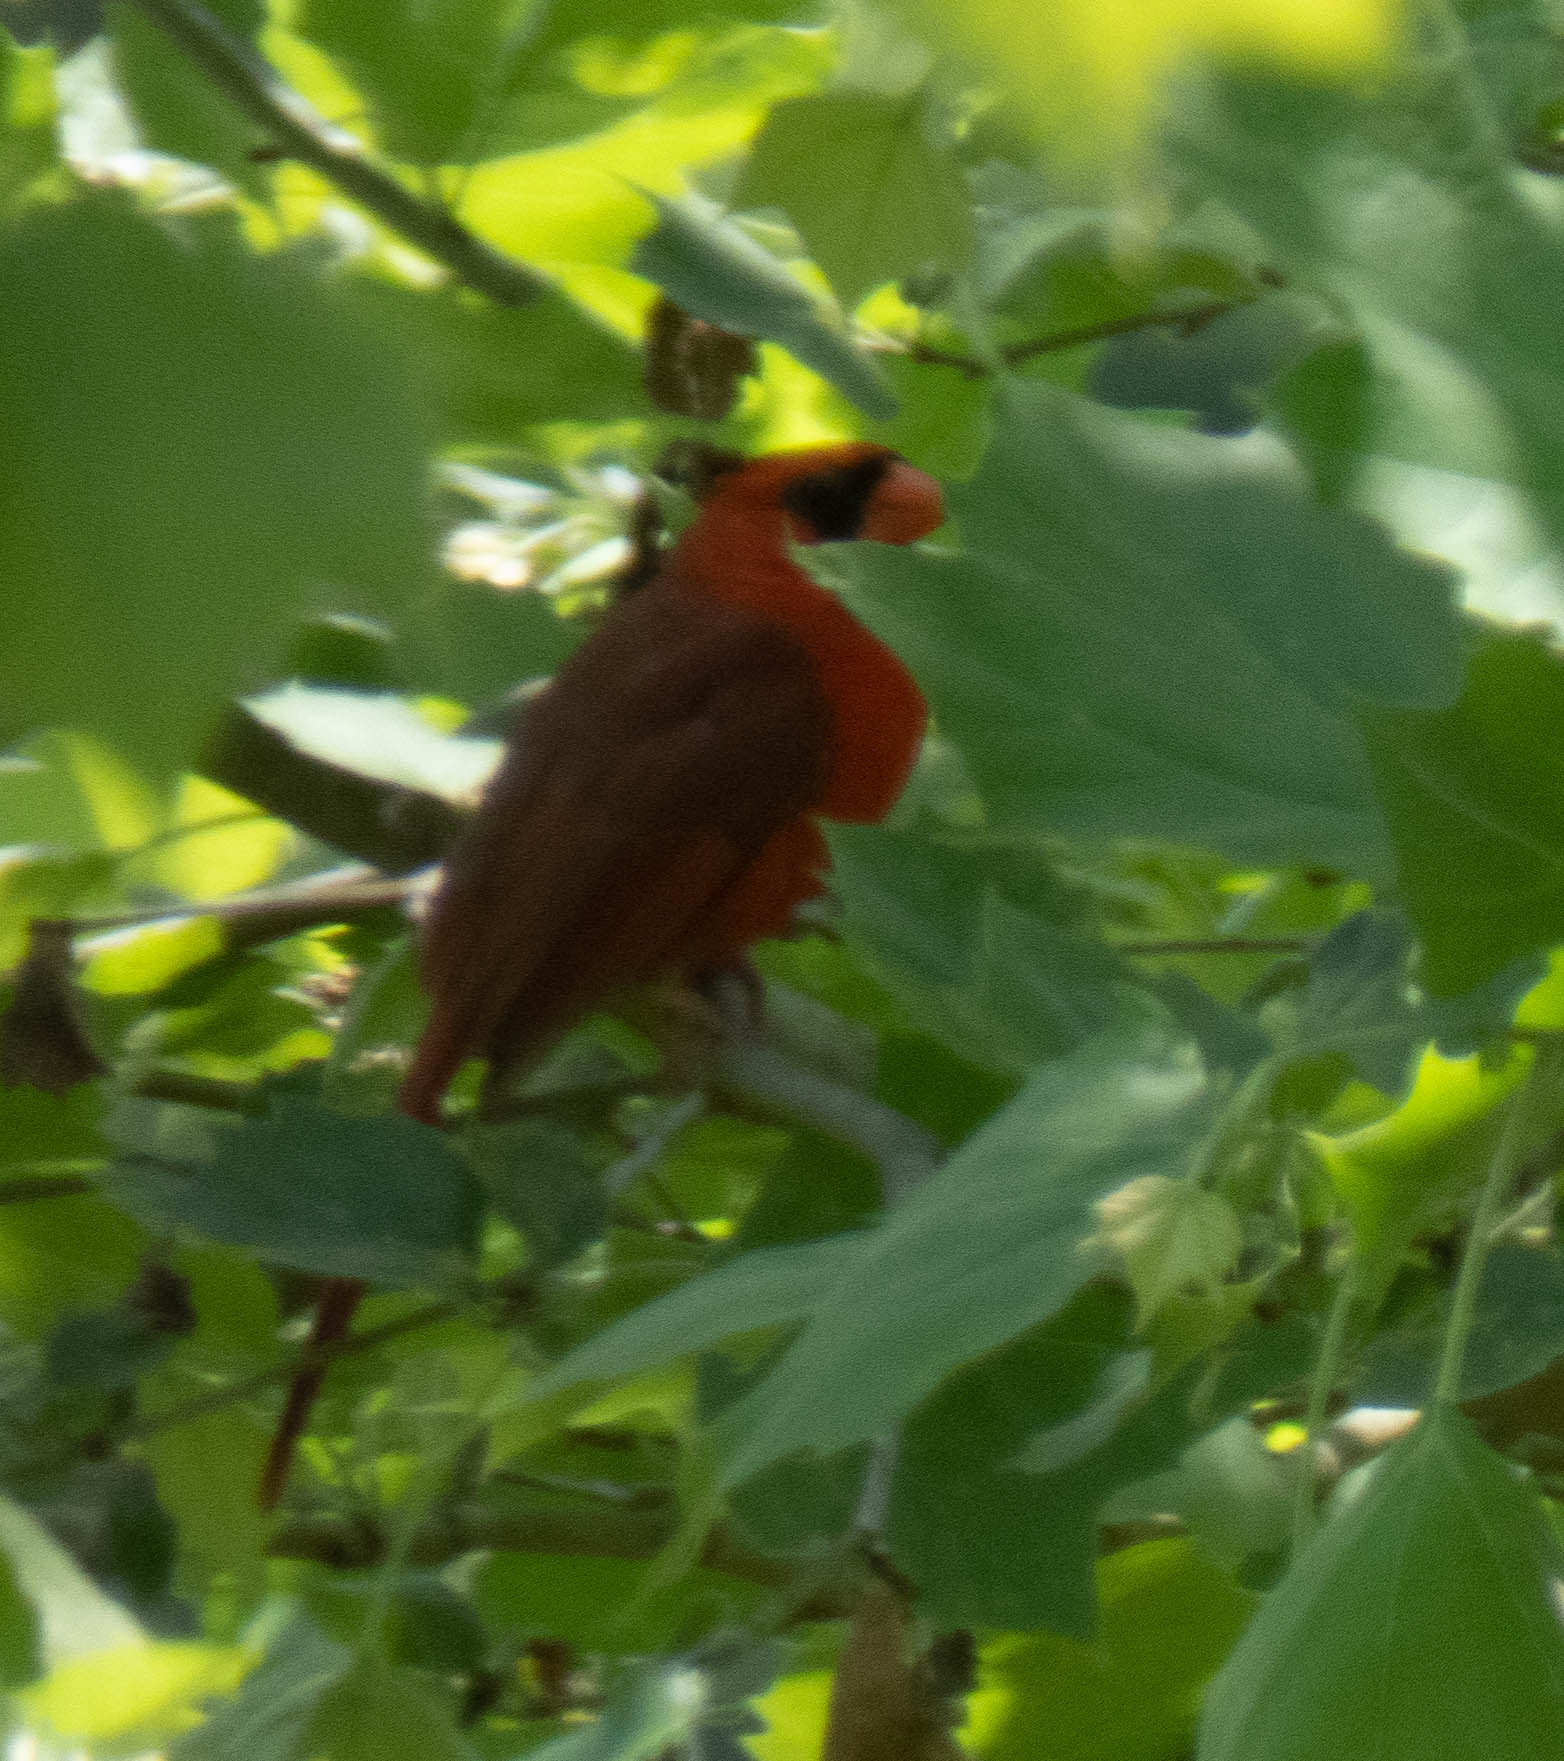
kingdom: Animalia
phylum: Chordata
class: Aves
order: Passeriformes
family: Cardinalidae
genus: Cardinalis
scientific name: Cardinalis cardinalis
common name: Northern cardinal
